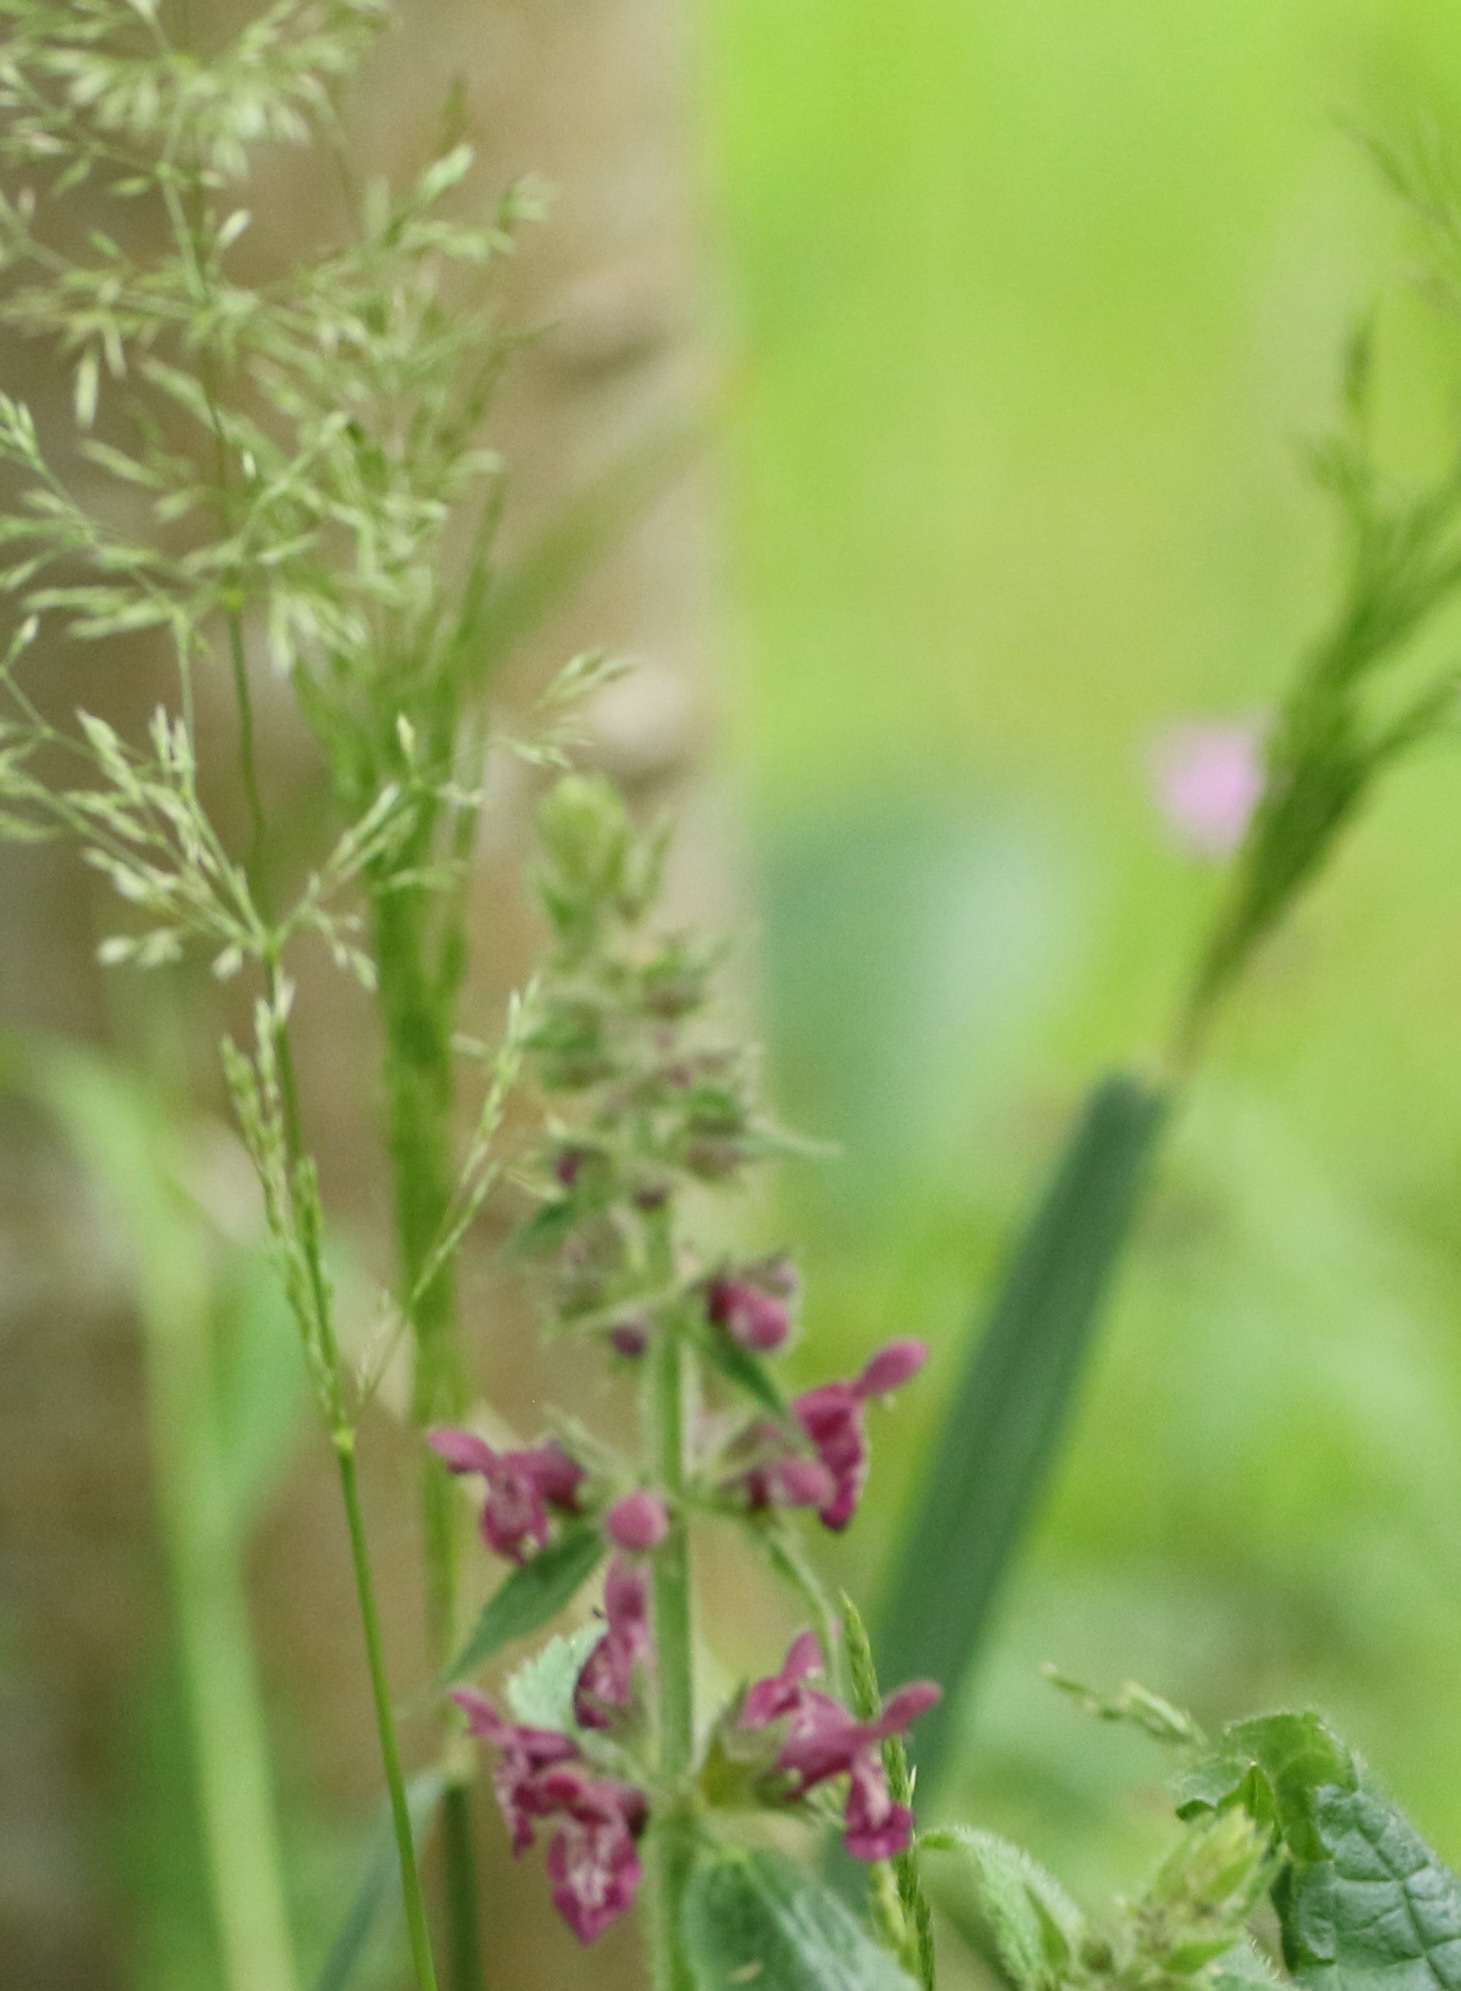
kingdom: Plantae
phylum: Tracheophyta
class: Magnoliopsida
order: Lamiales
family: Lamiaceae
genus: Stachys
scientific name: Stachys sylvatica
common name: Hedge woundwort
